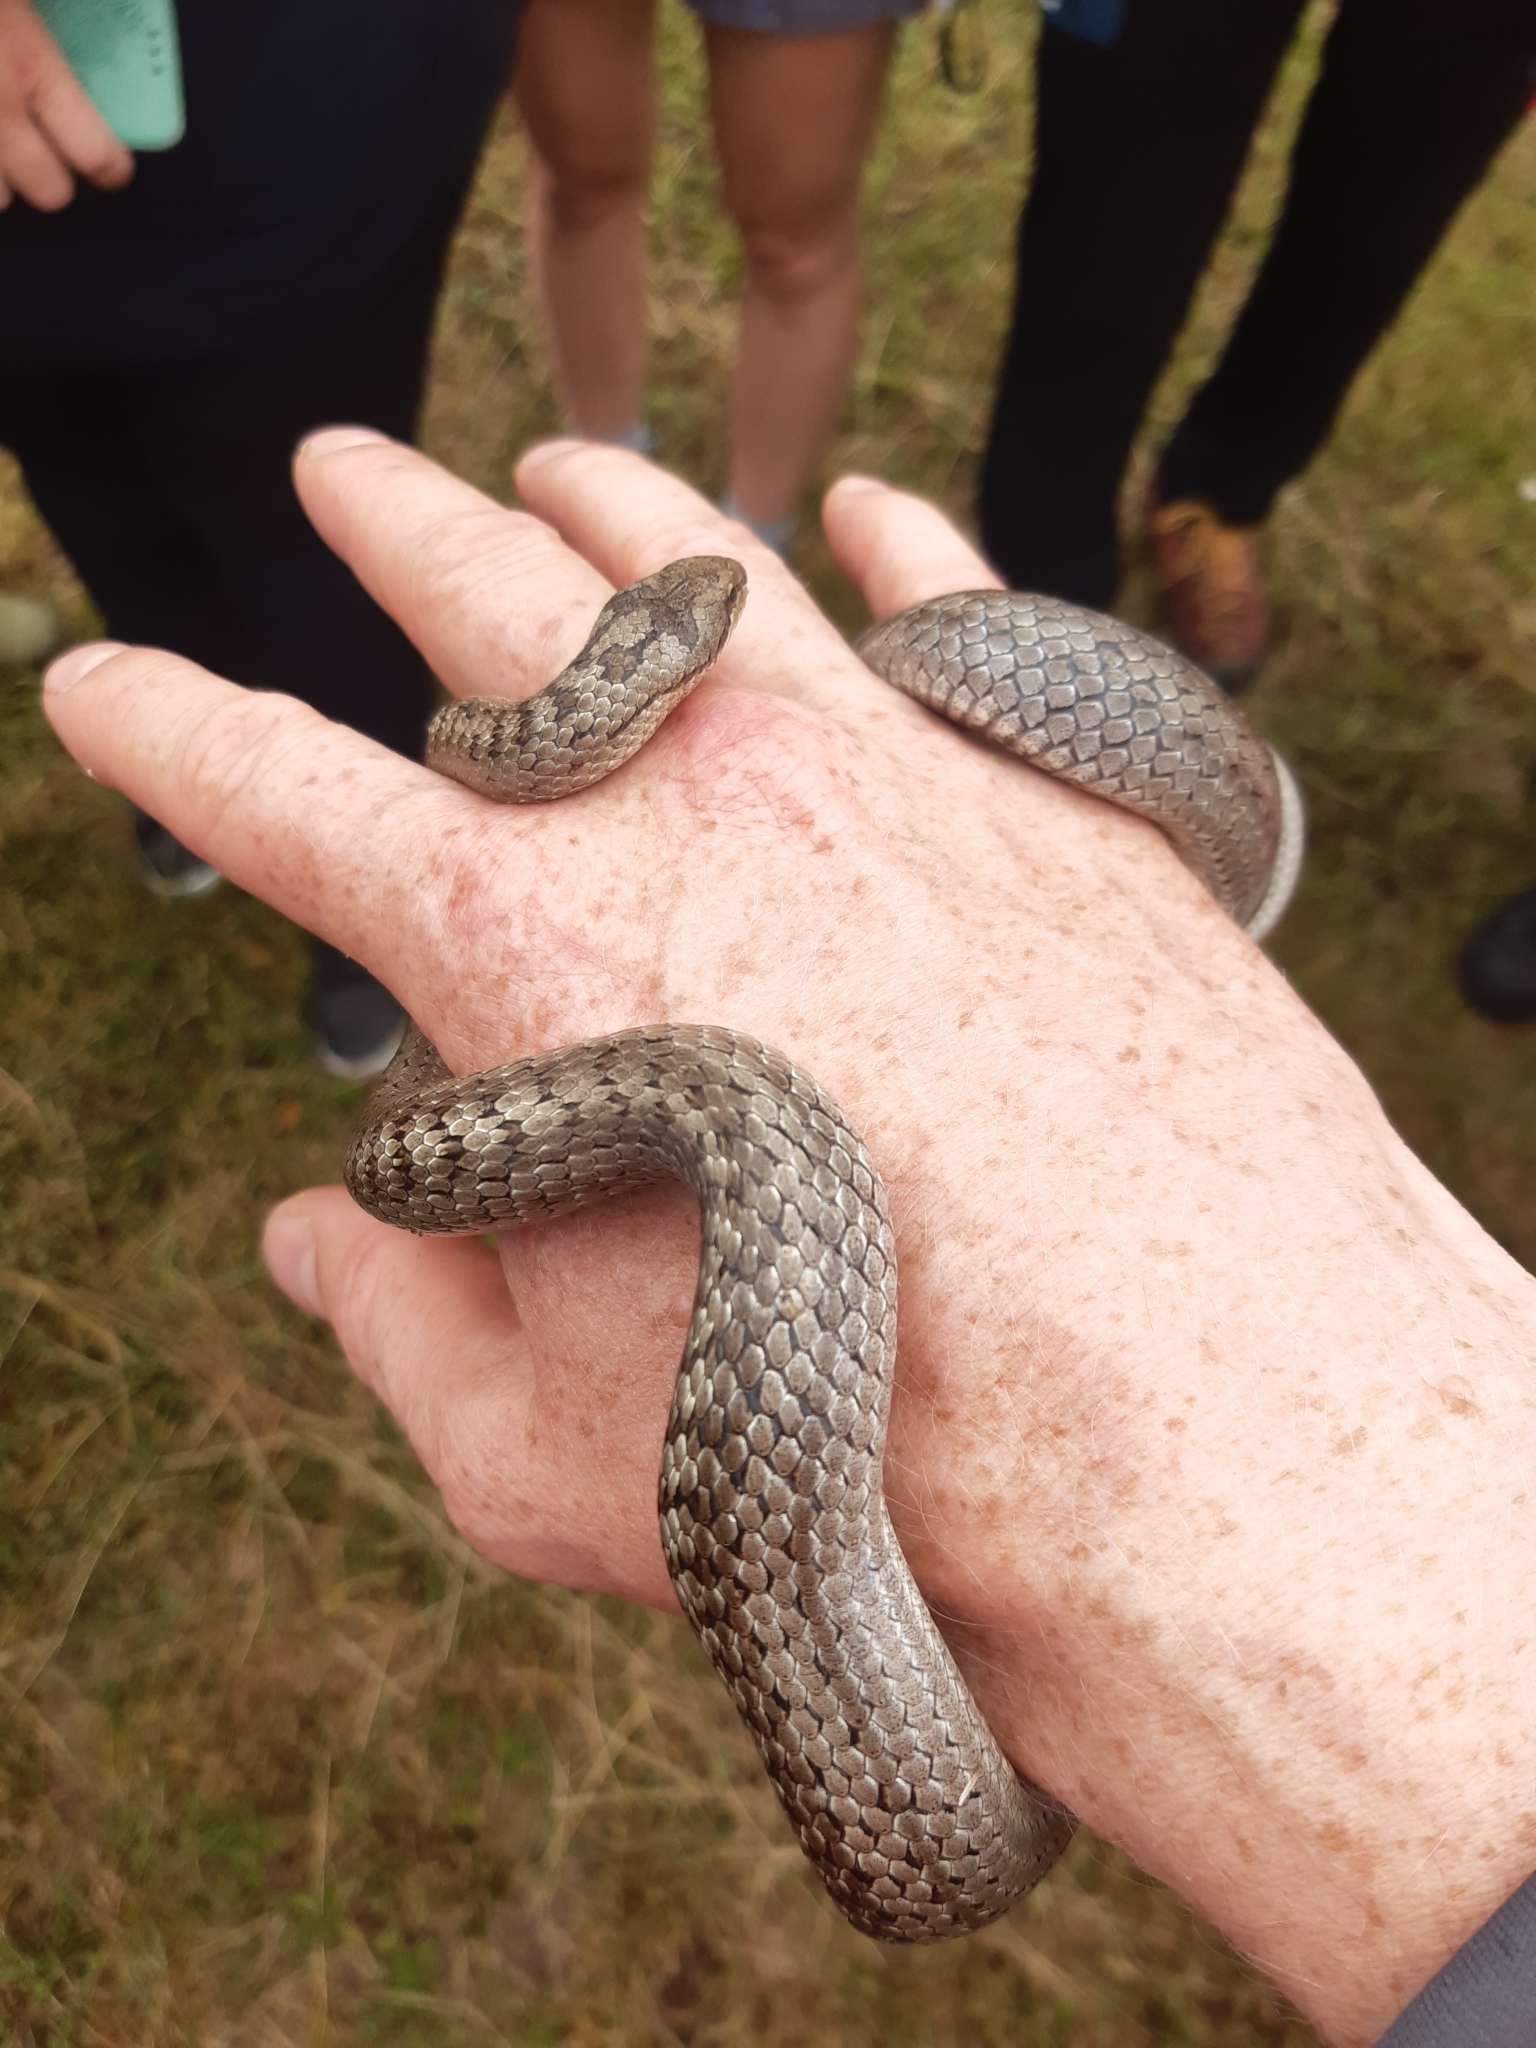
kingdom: Animalia
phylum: Chordata
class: Squamata
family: Colubridae
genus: Coronella
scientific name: Coronella austriaca
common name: Smooth snake
